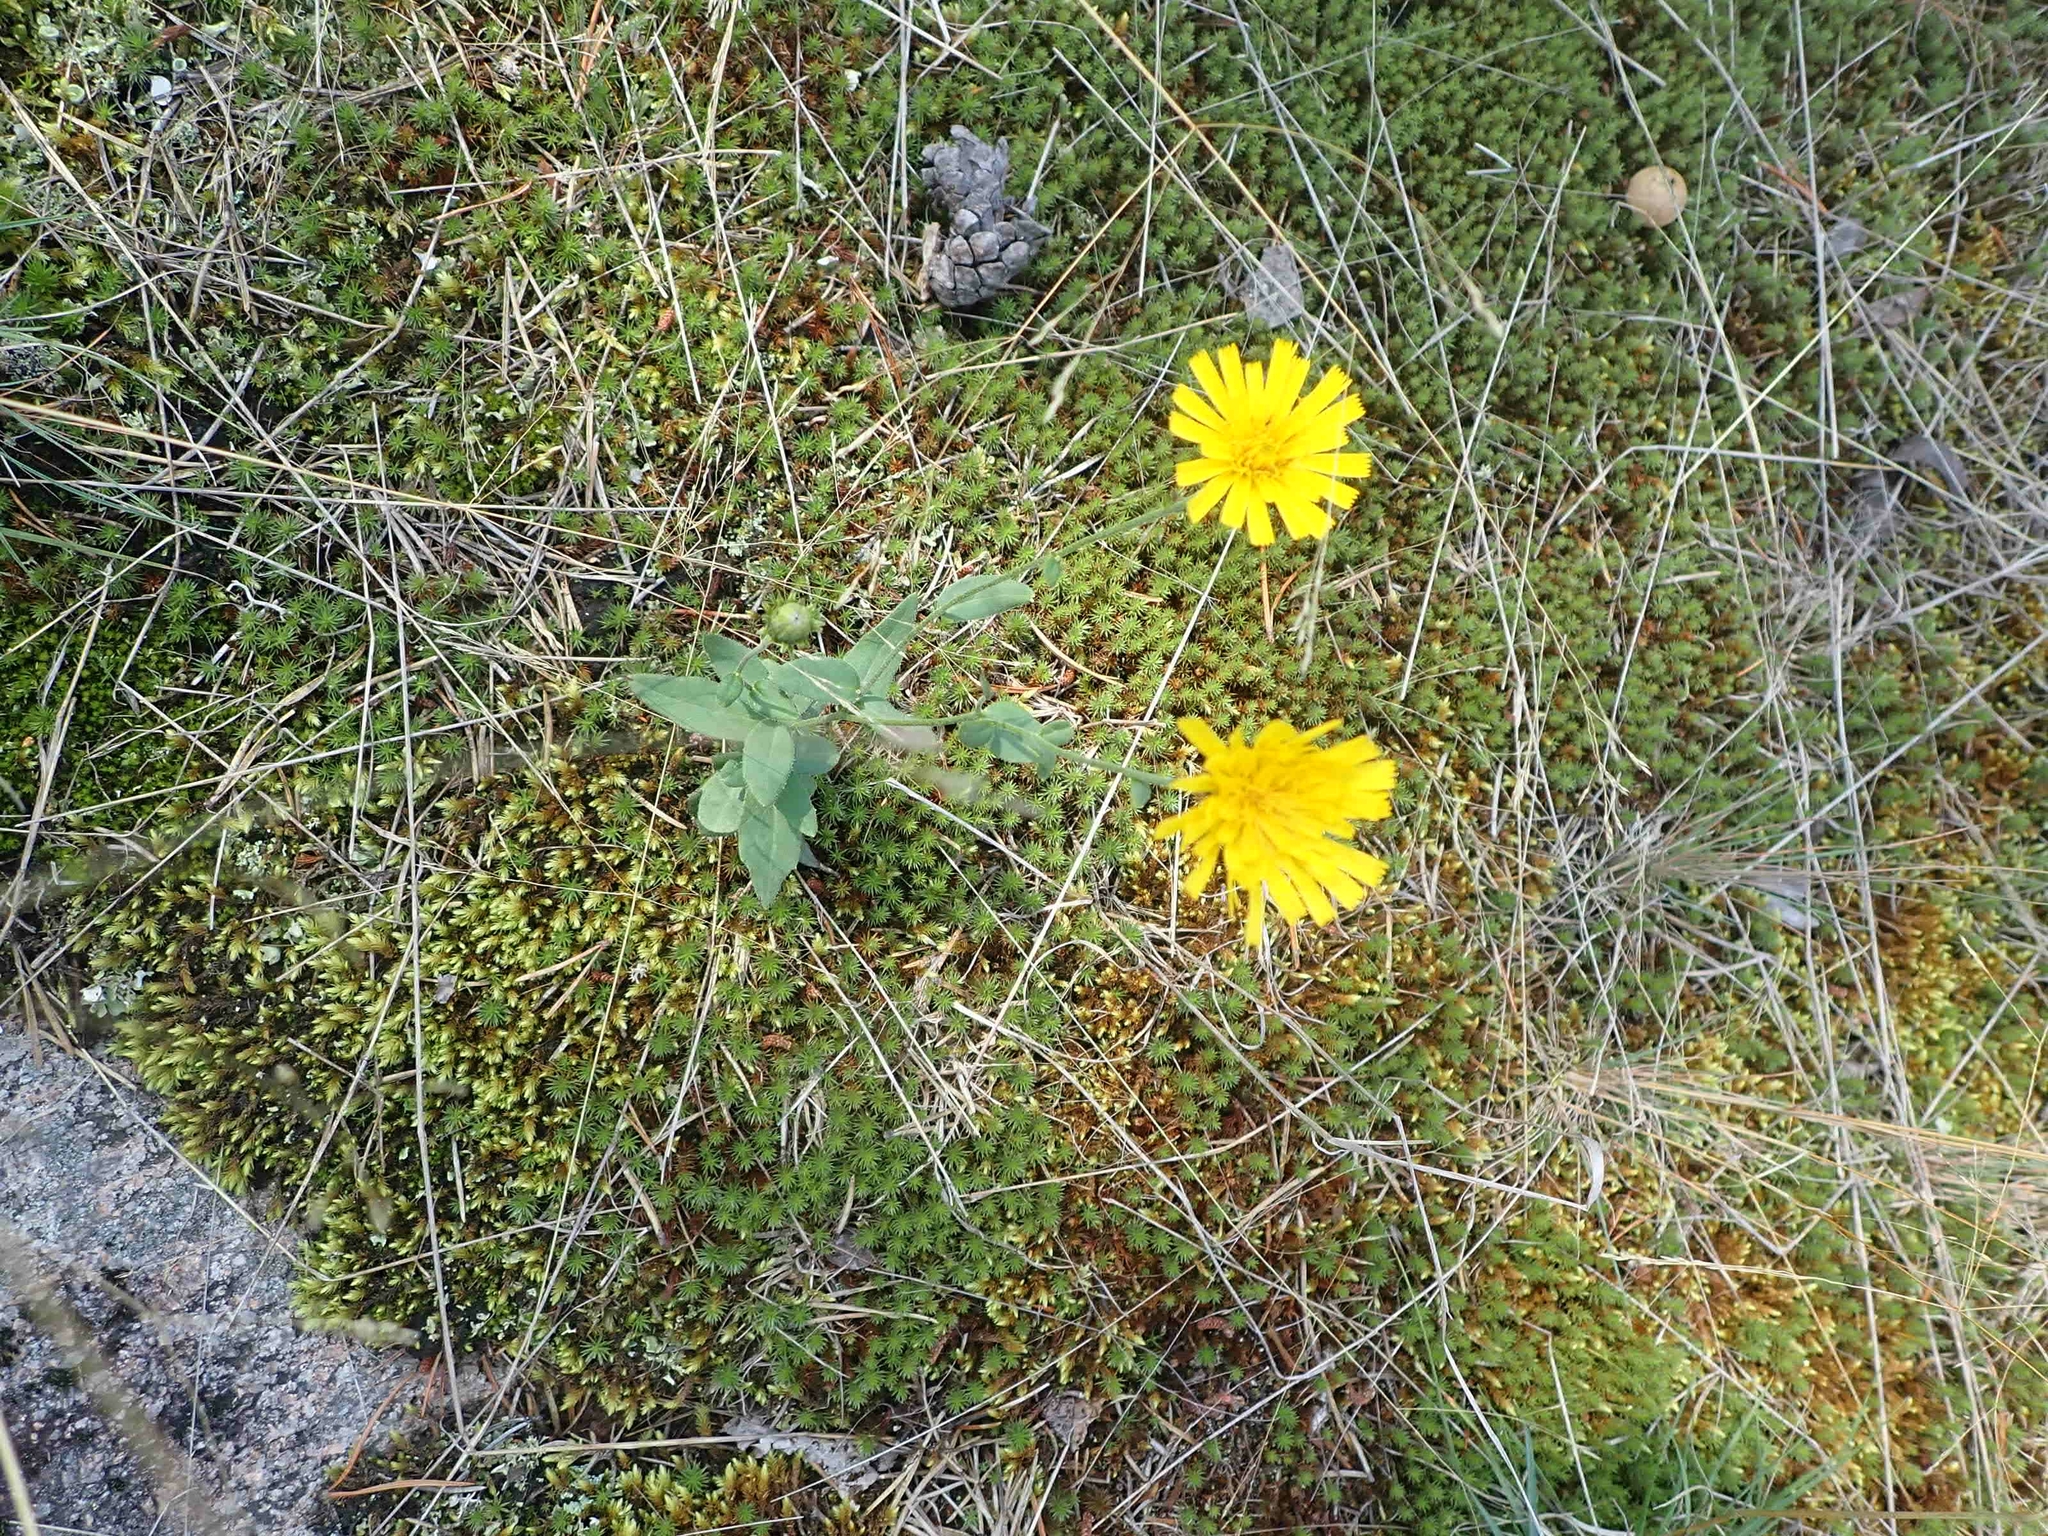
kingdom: Plantae
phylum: Tracheophyta
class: Magnoliopsida
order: Asterales
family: Asteraceae
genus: Hieracium
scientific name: Hieracium umbellatum
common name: Northern hawkweed
